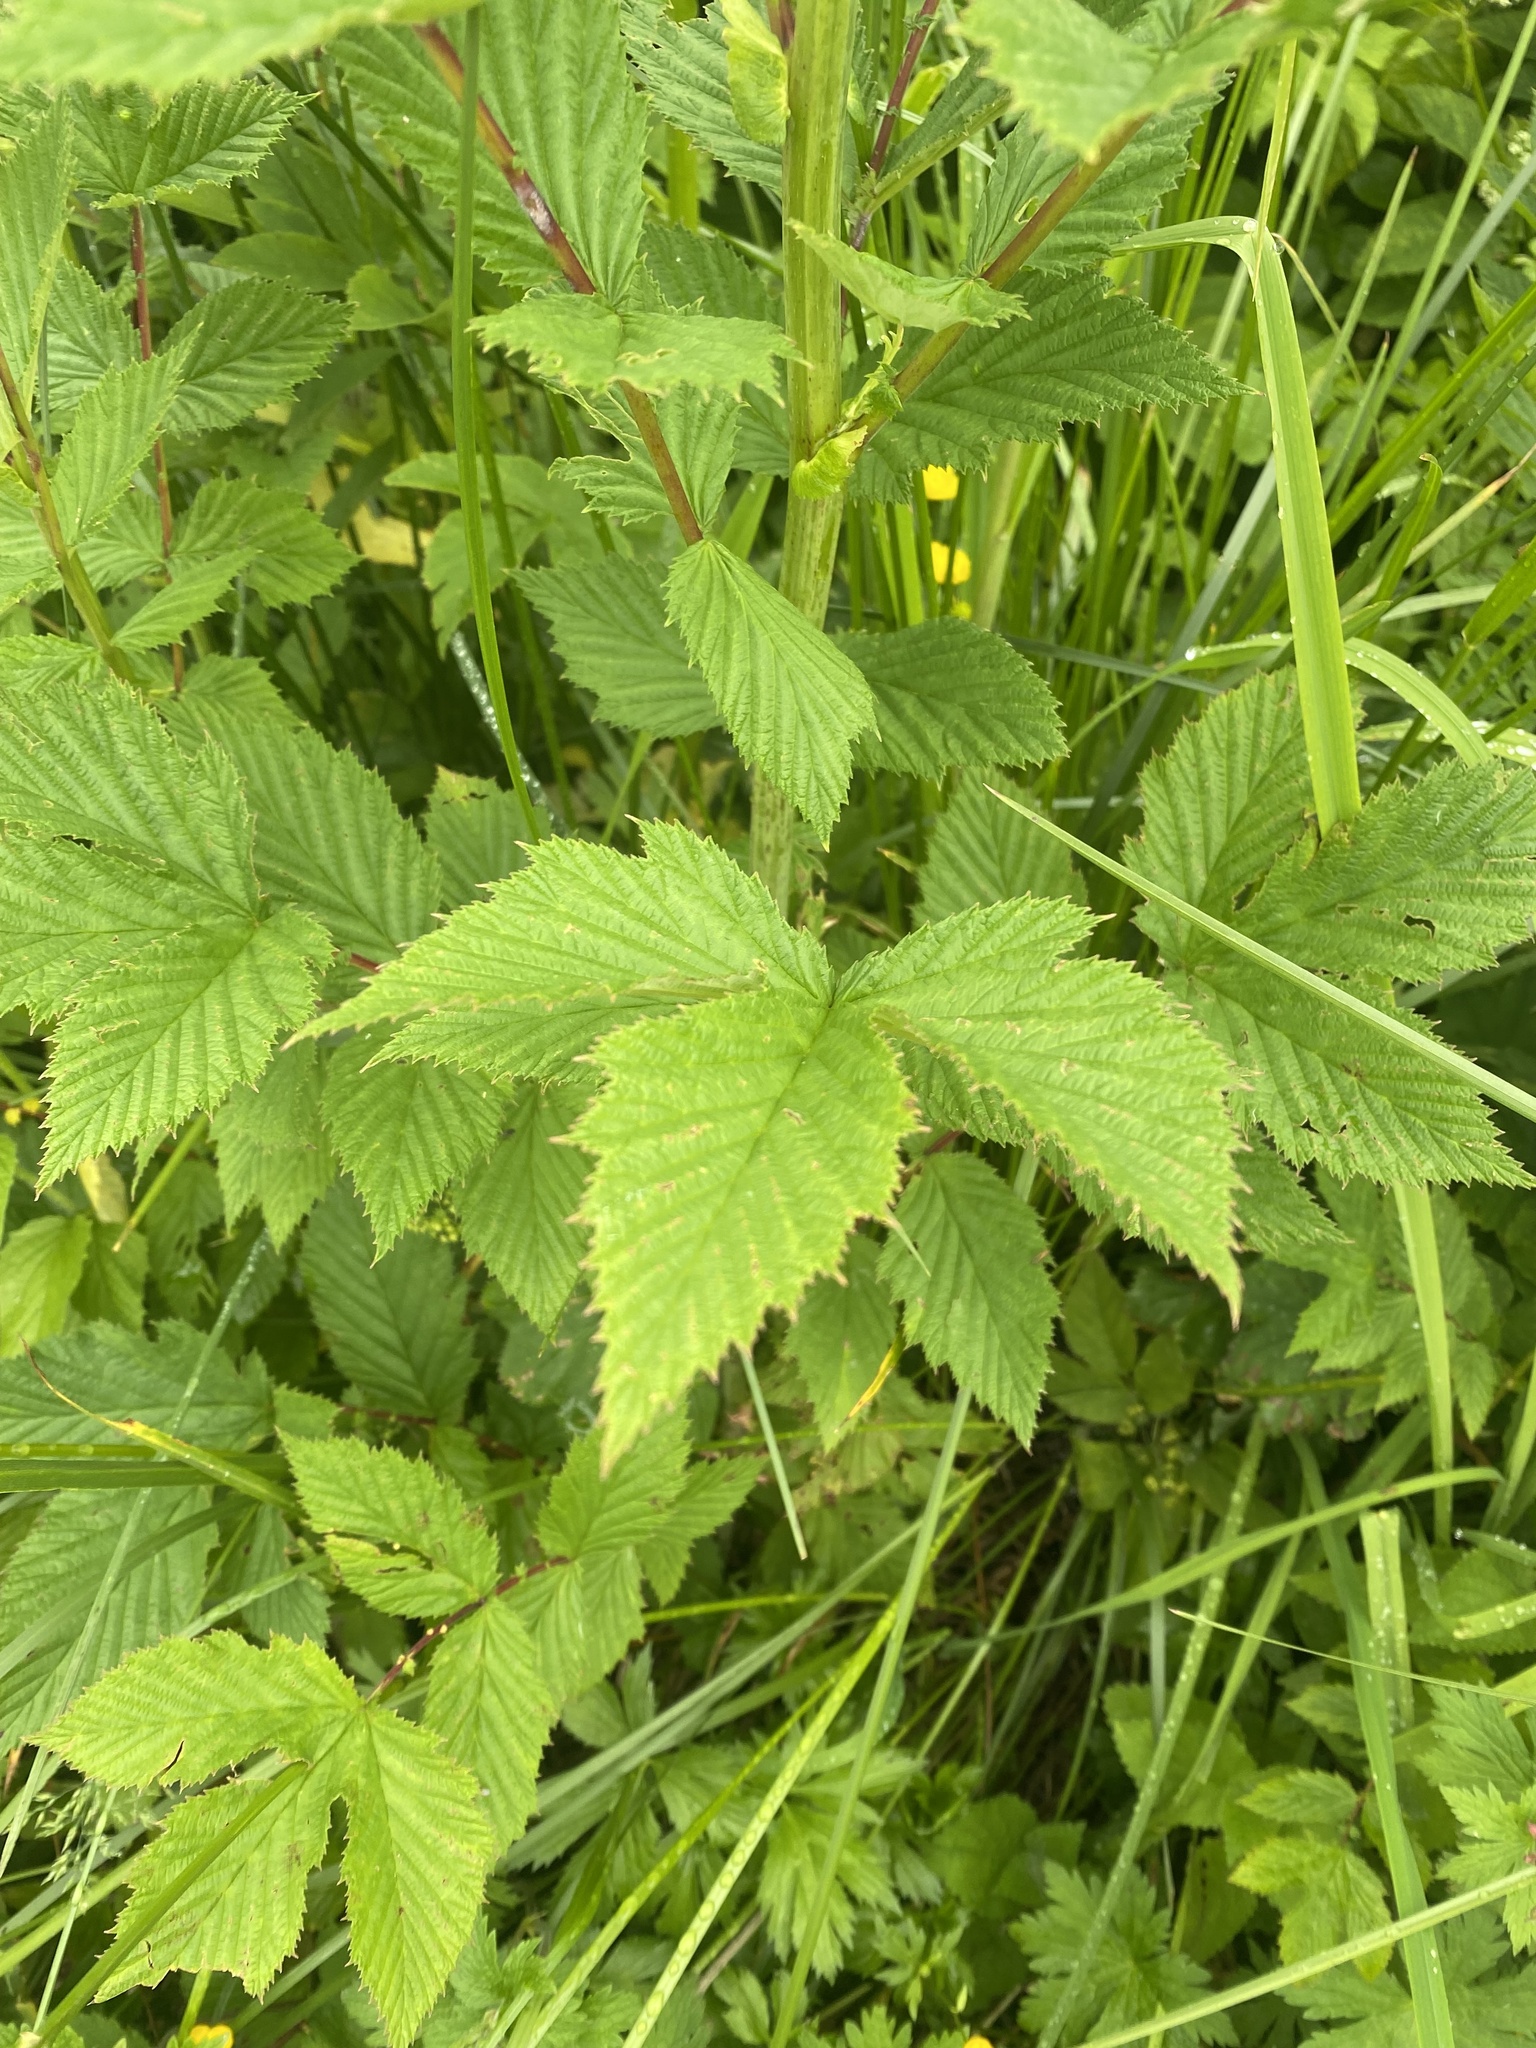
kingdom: Plantae
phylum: Tracheophyta
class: Magnoliopsida
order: Rosales
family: Rosaceae
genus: Filipendula
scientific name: Filipendula ulmaria
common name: Meadowsweet
